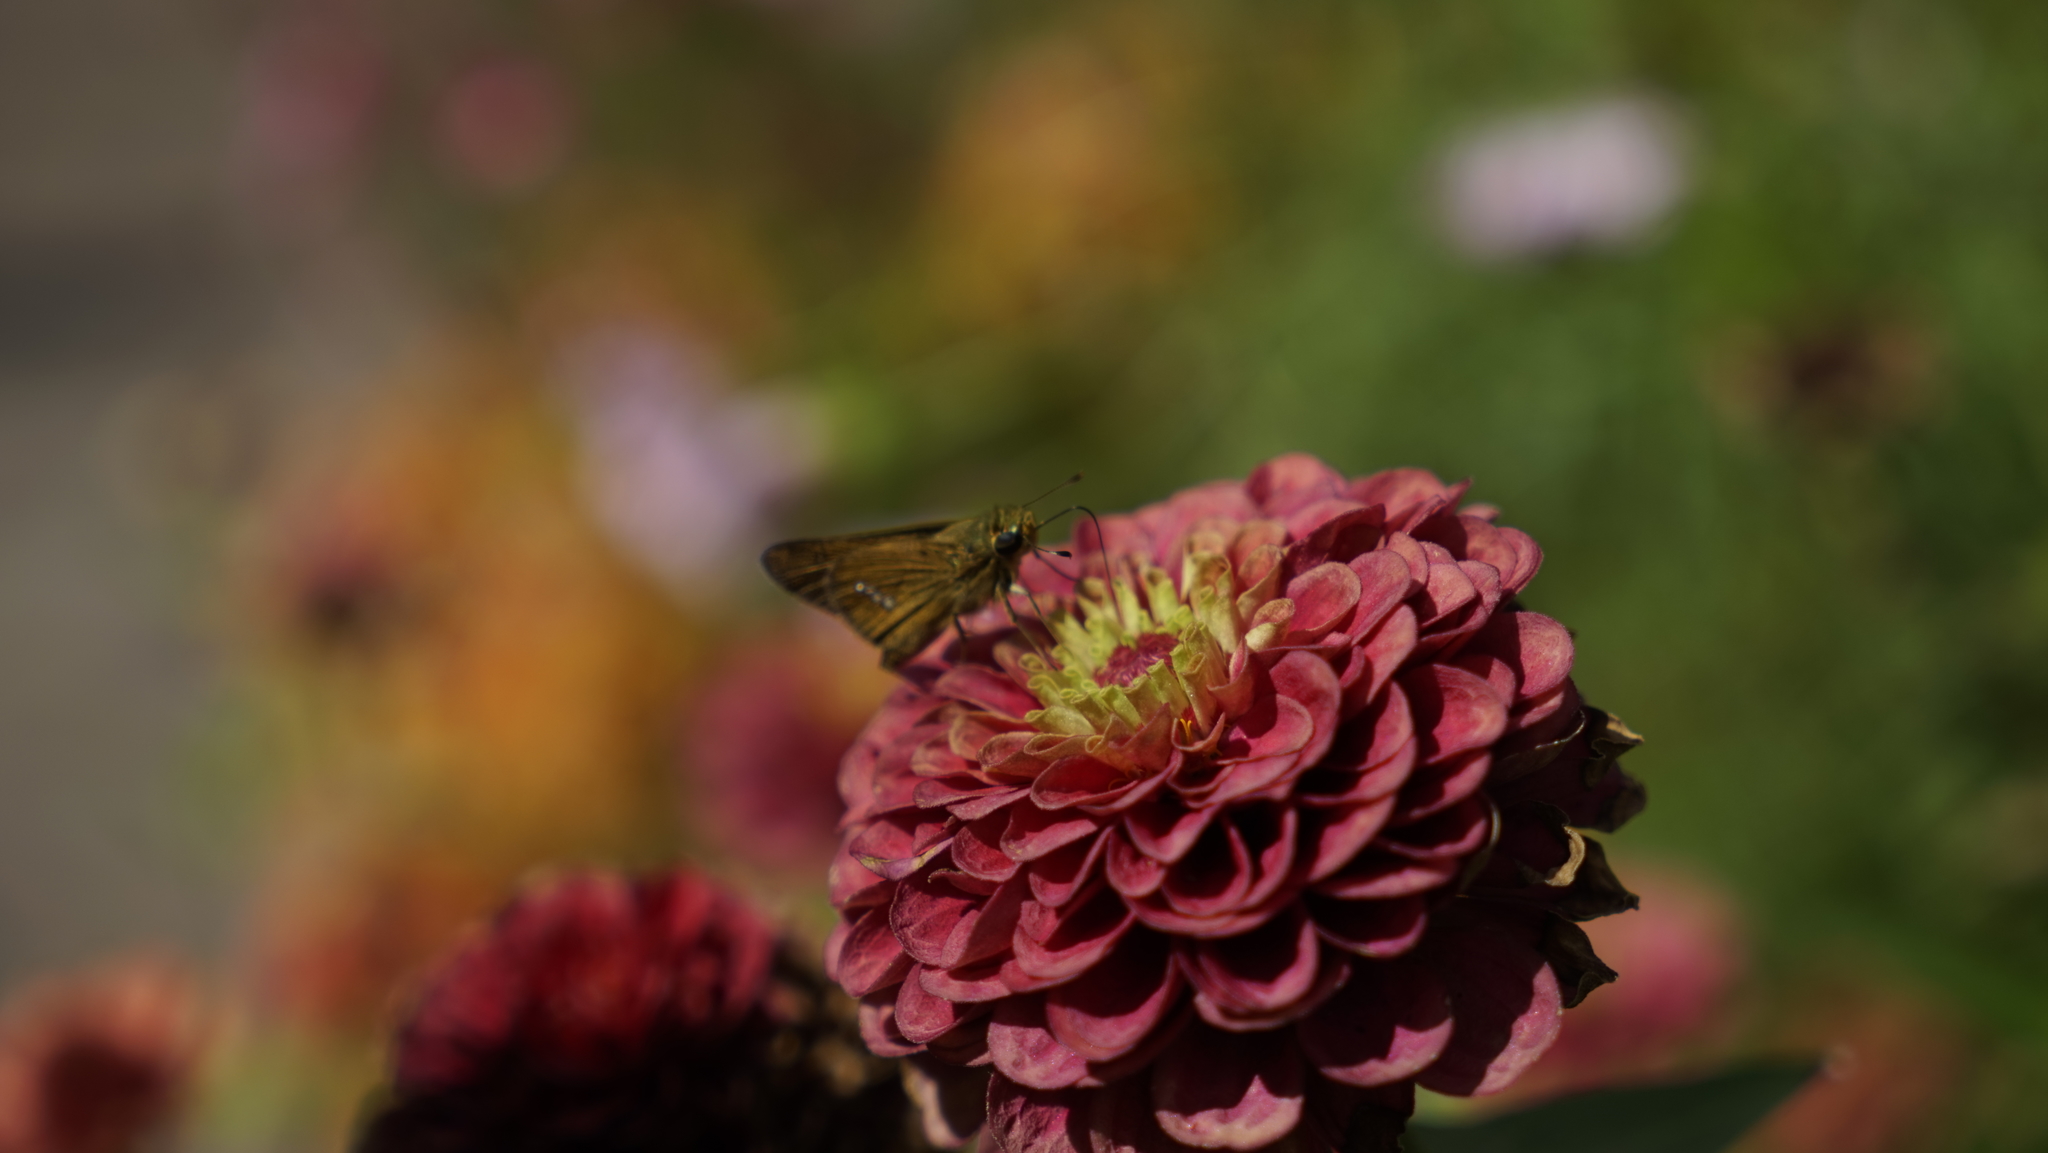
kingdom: Animalia
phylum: Arthropoda
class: Insecta
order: Lepidoptera
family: Hesperiidae
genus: Parnara
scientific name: Parnara guttatus
